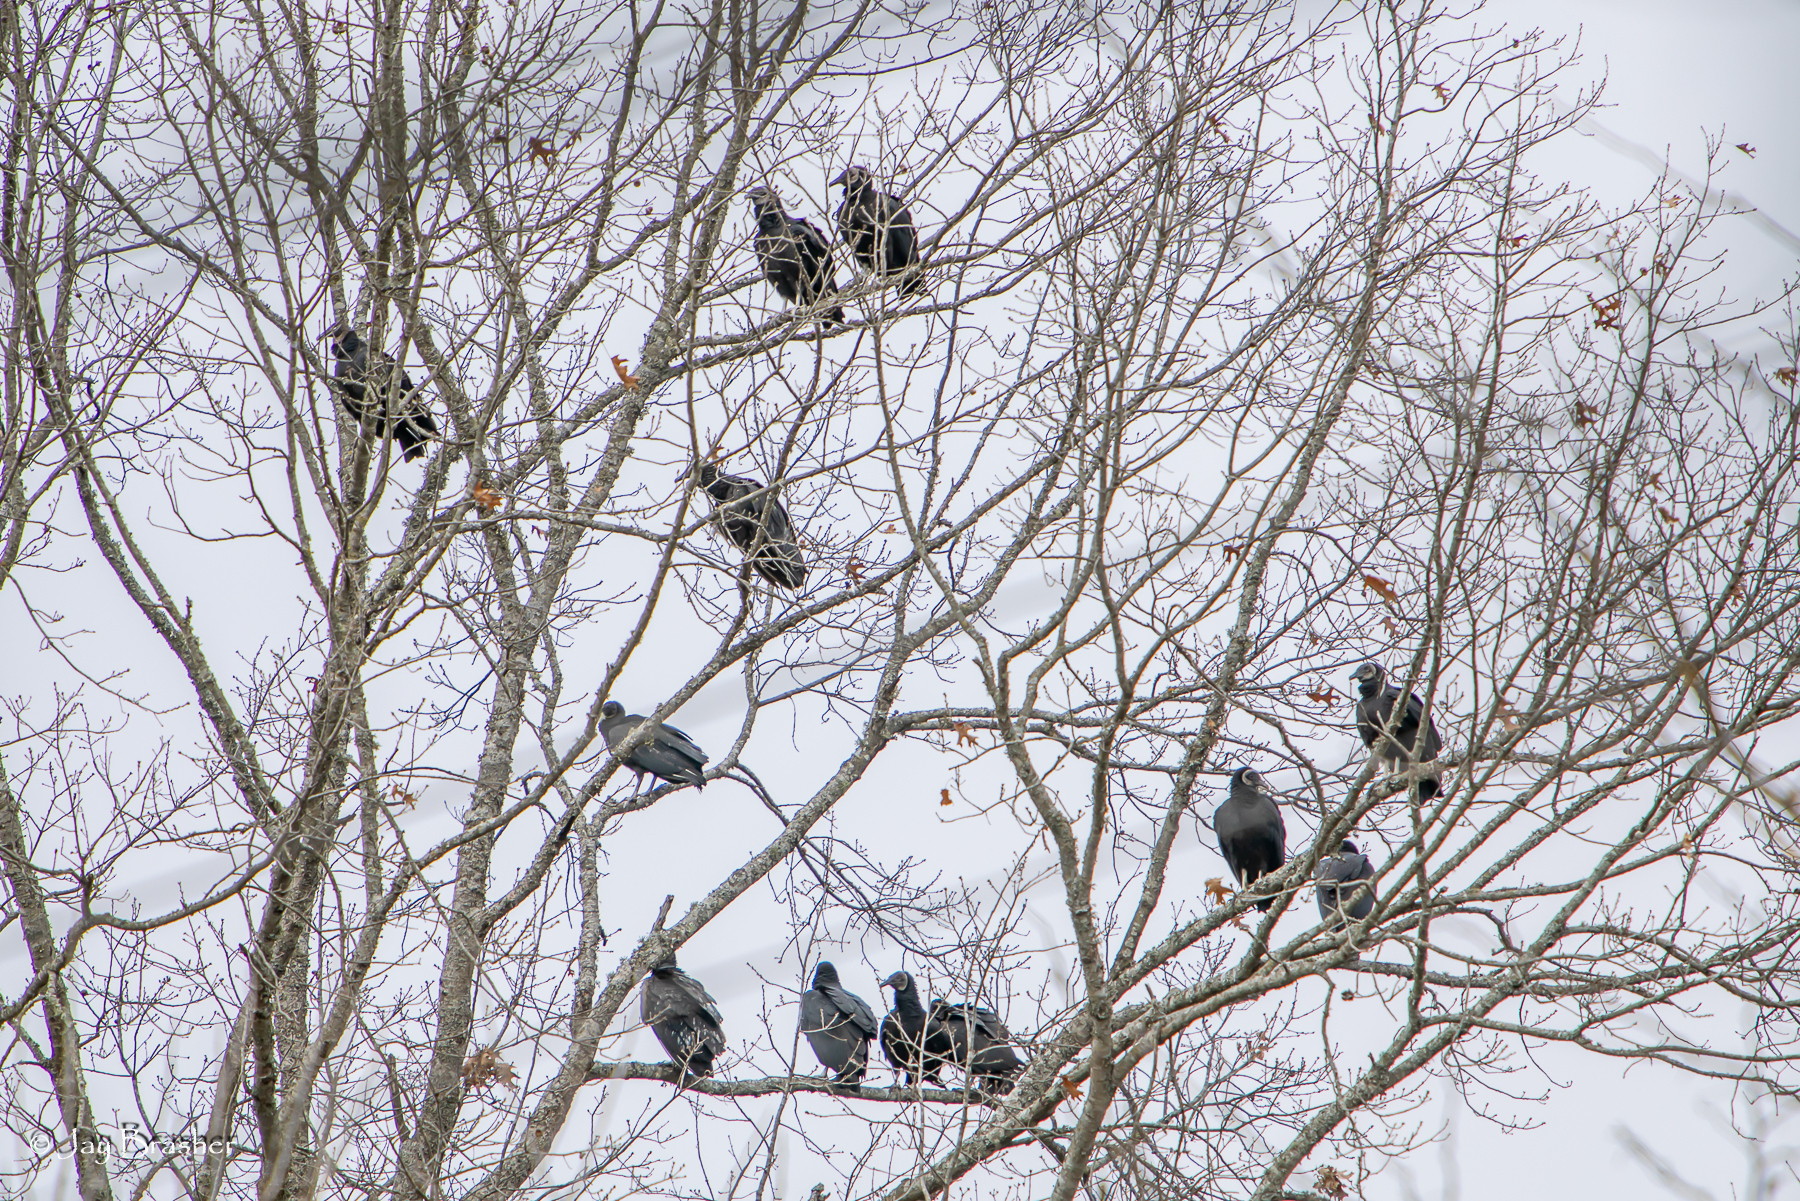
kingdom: Animalia
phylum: Chordata
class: Aves
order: Accipitriformes
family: Cathartidae
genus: Coragyps
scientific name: Coragyps atratus
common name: Black vulture
